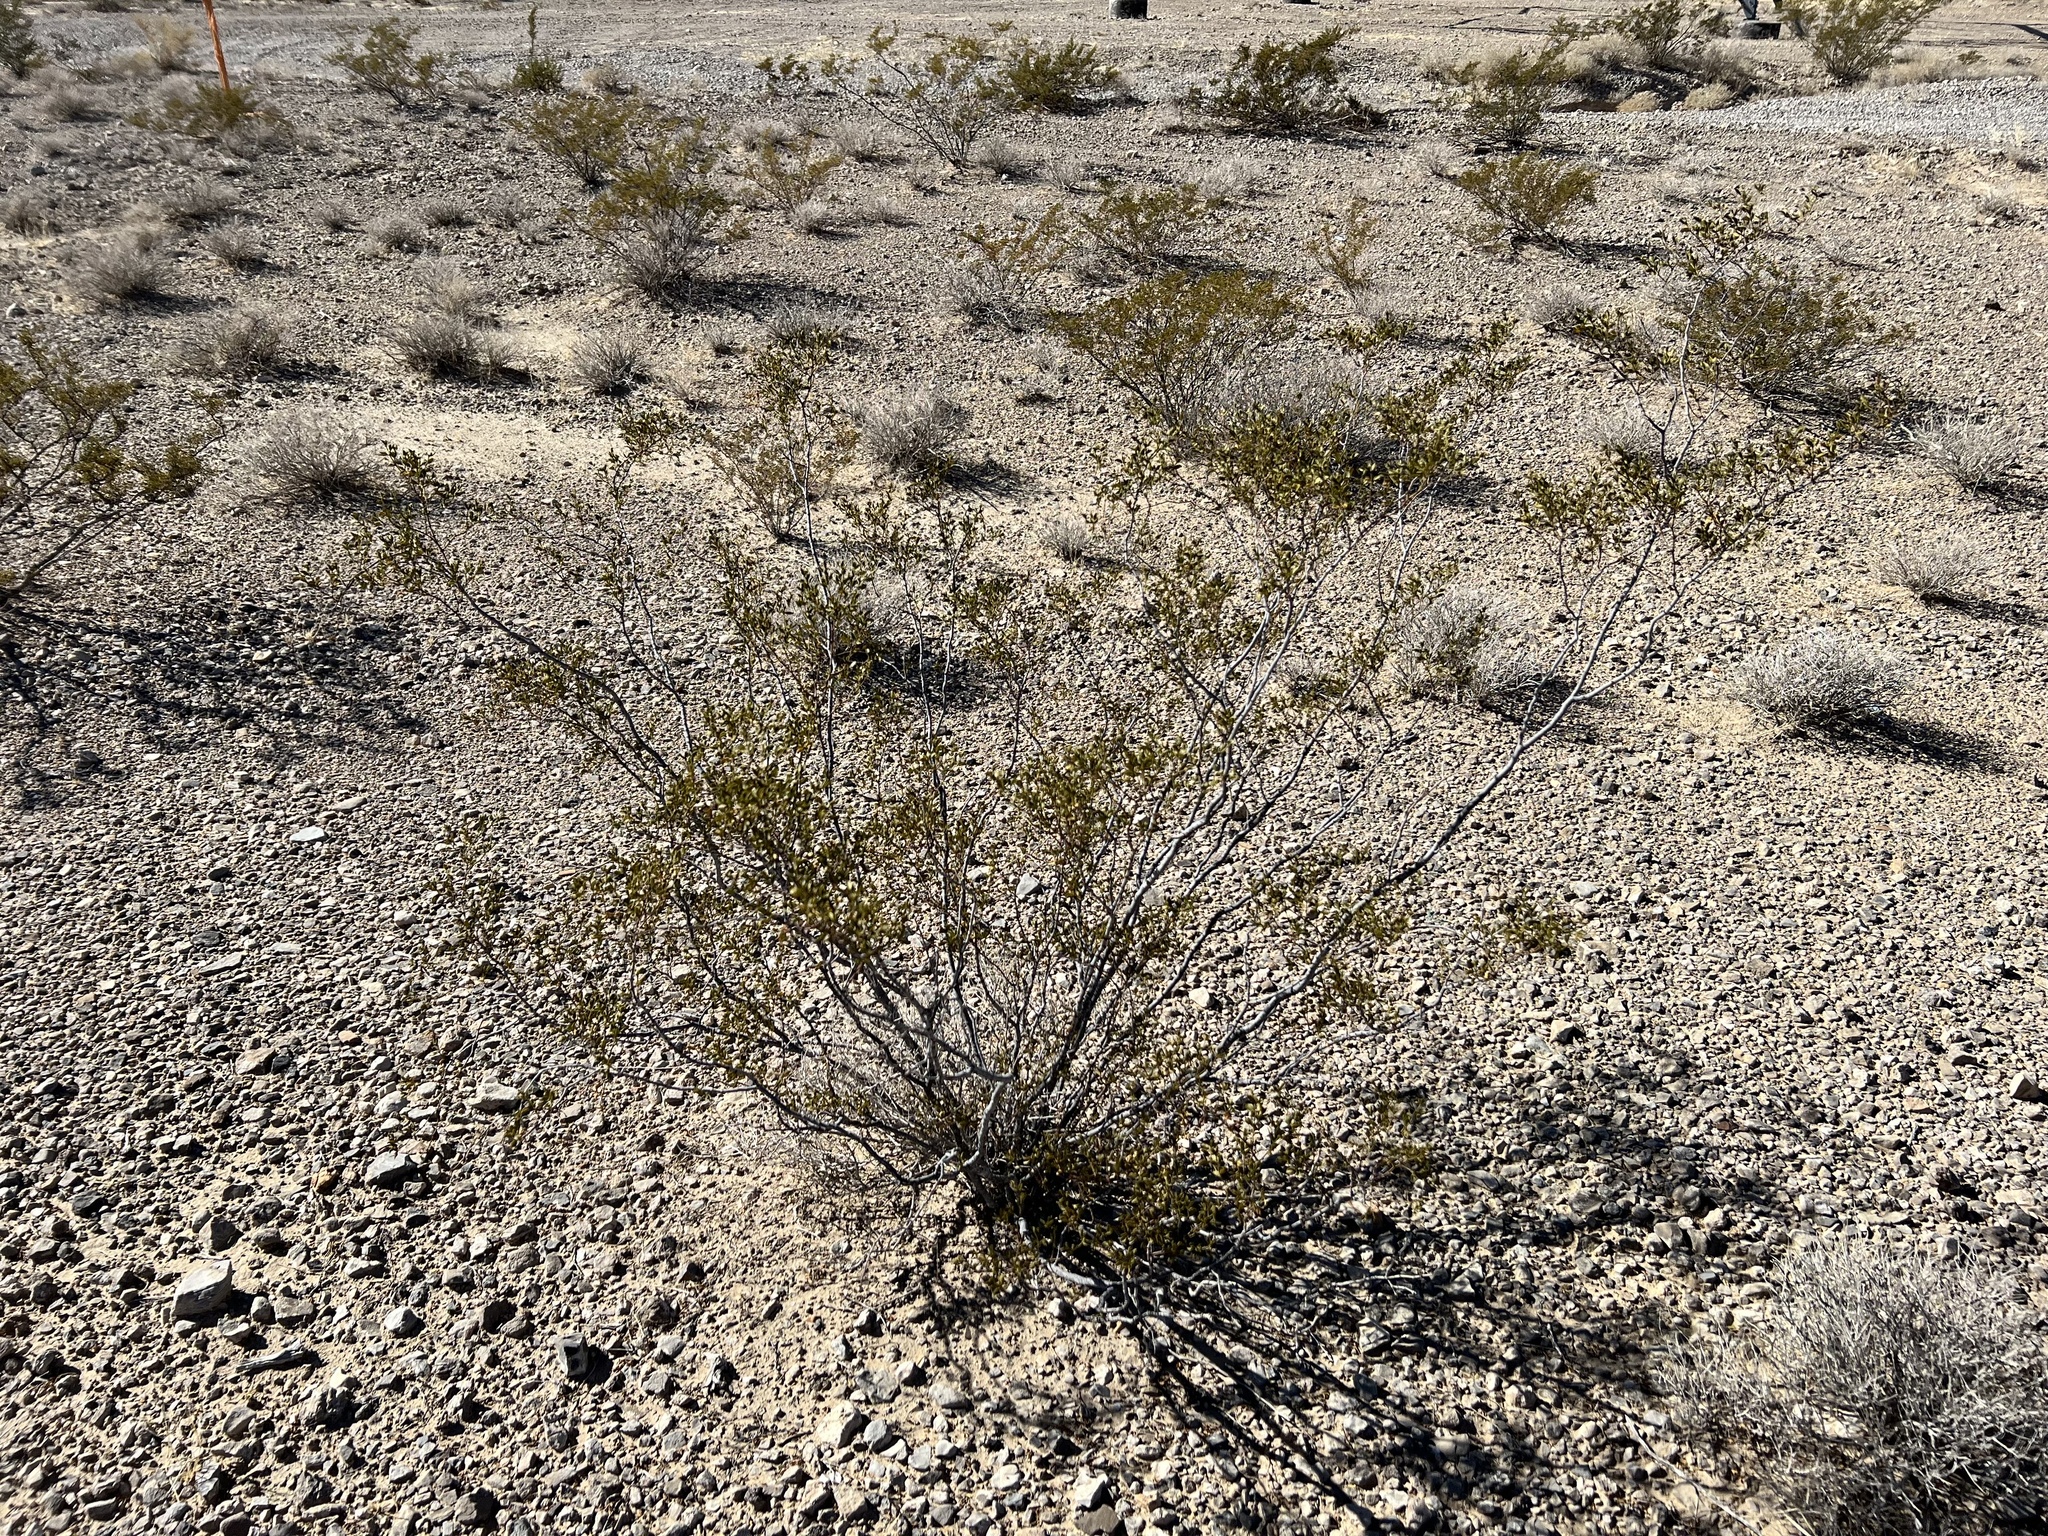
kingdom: Plantae
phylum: Tracheophyta
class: Magnoliopsida
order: Zygophyllales
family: Zygophyllaceae
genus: Larrea
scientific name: Larrea tridentata
